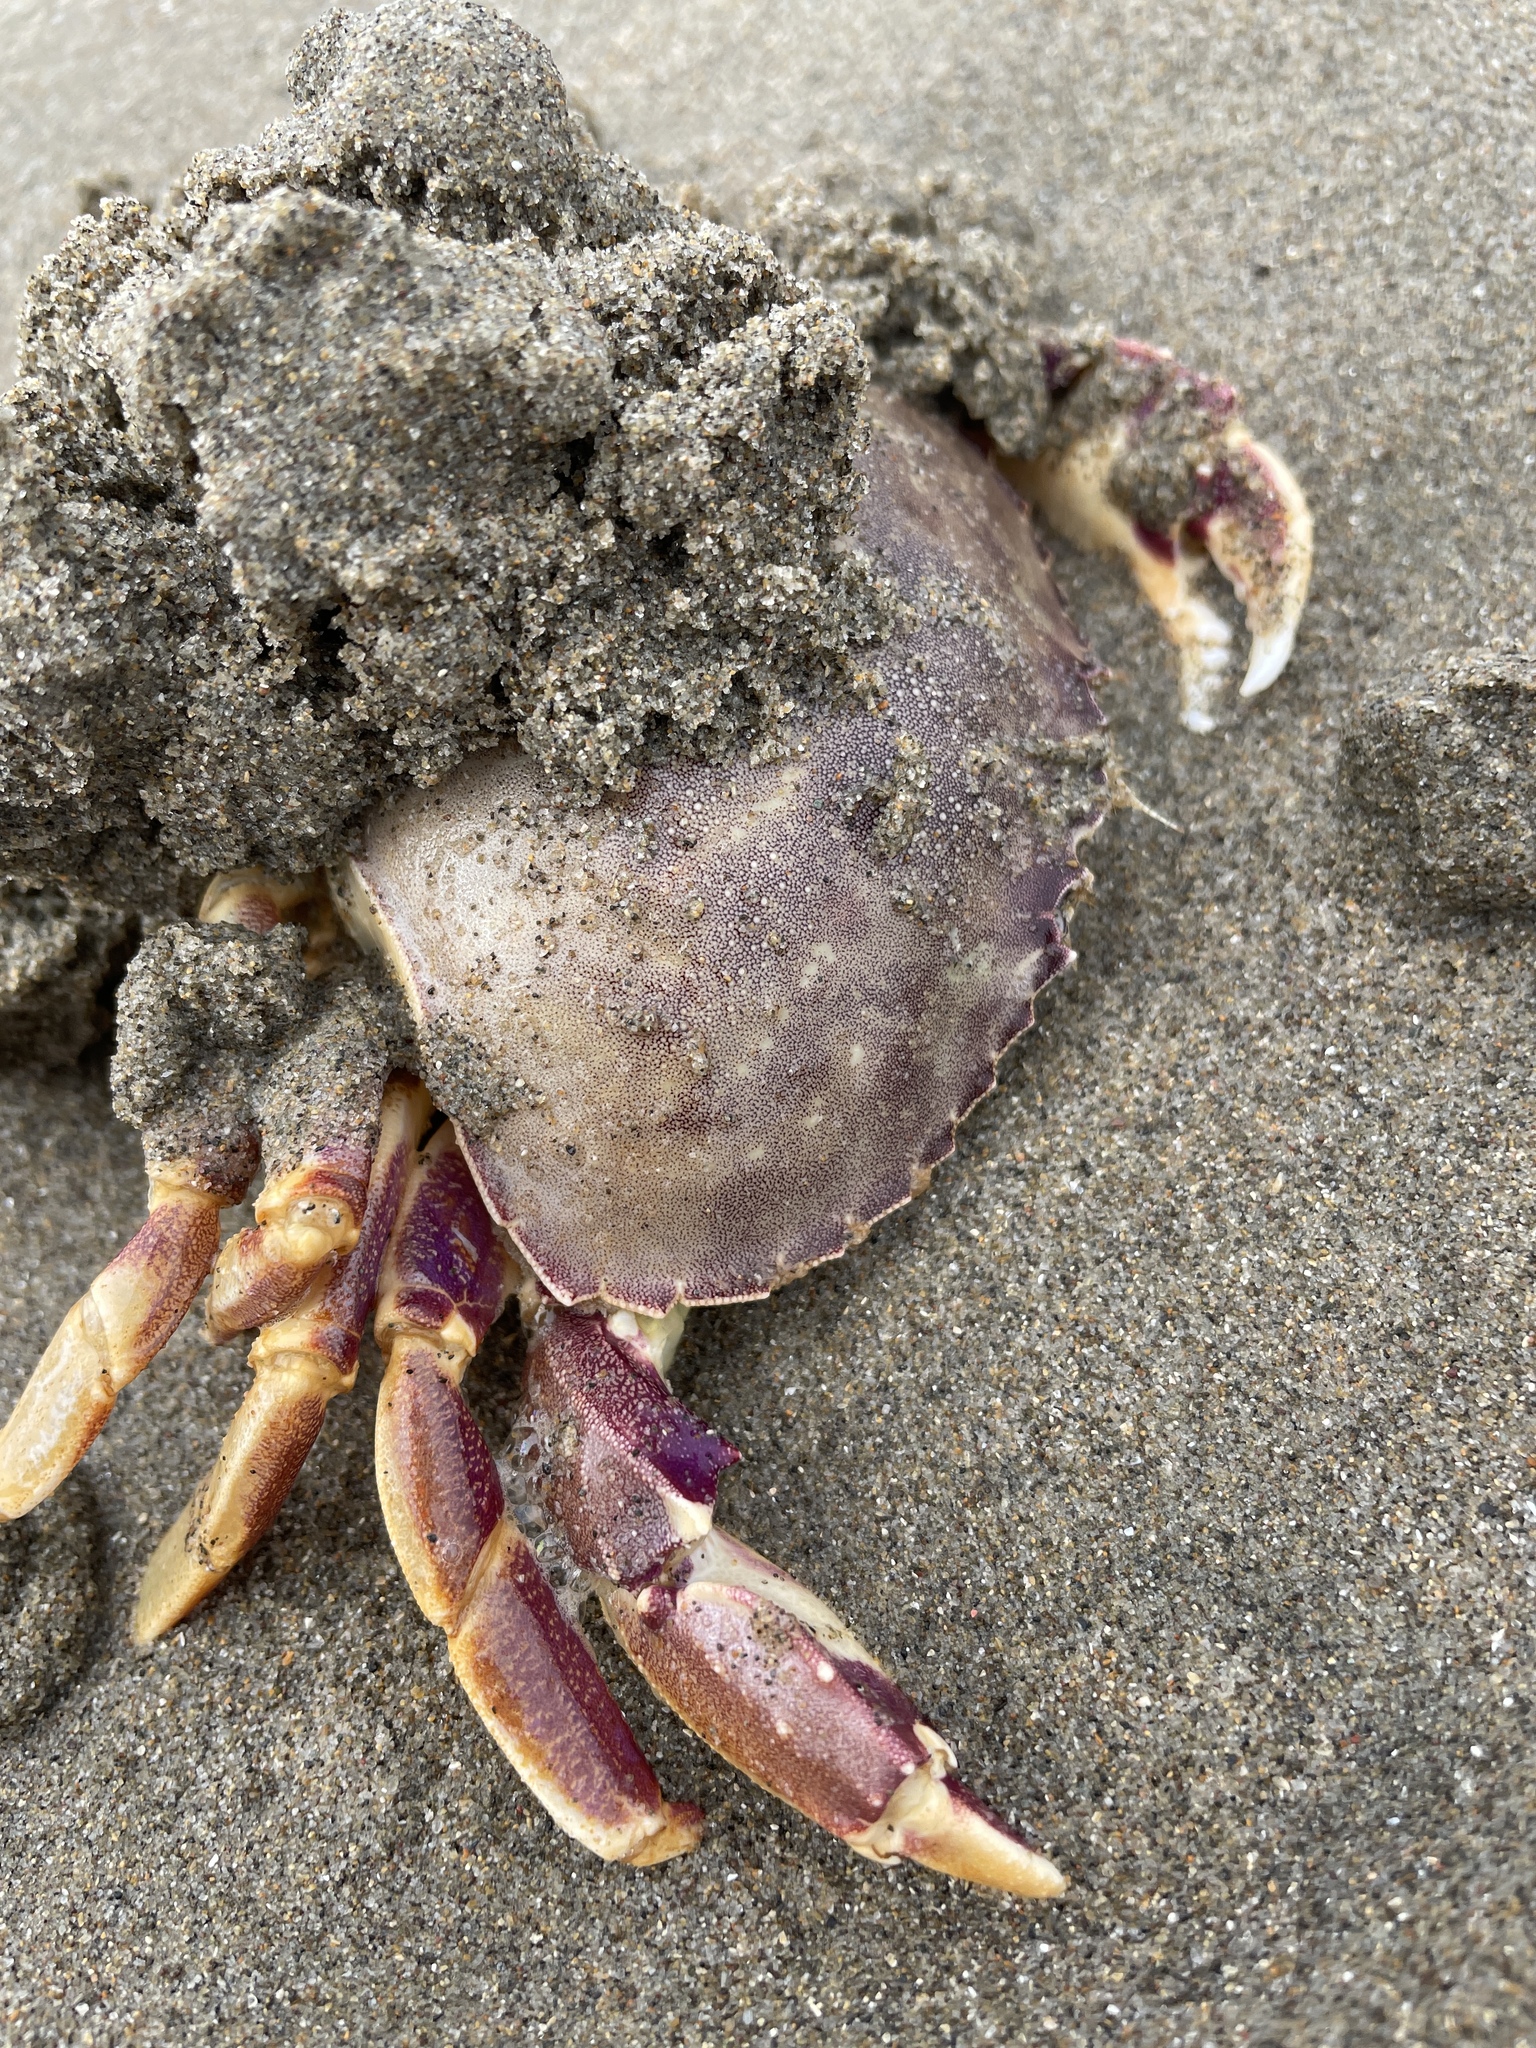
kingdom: Animalia
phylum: Arthropoda
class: Malacostraca
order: Decapoda
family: Cancridae
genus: Metacarcinus
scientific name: Metacarcinus gracilis
